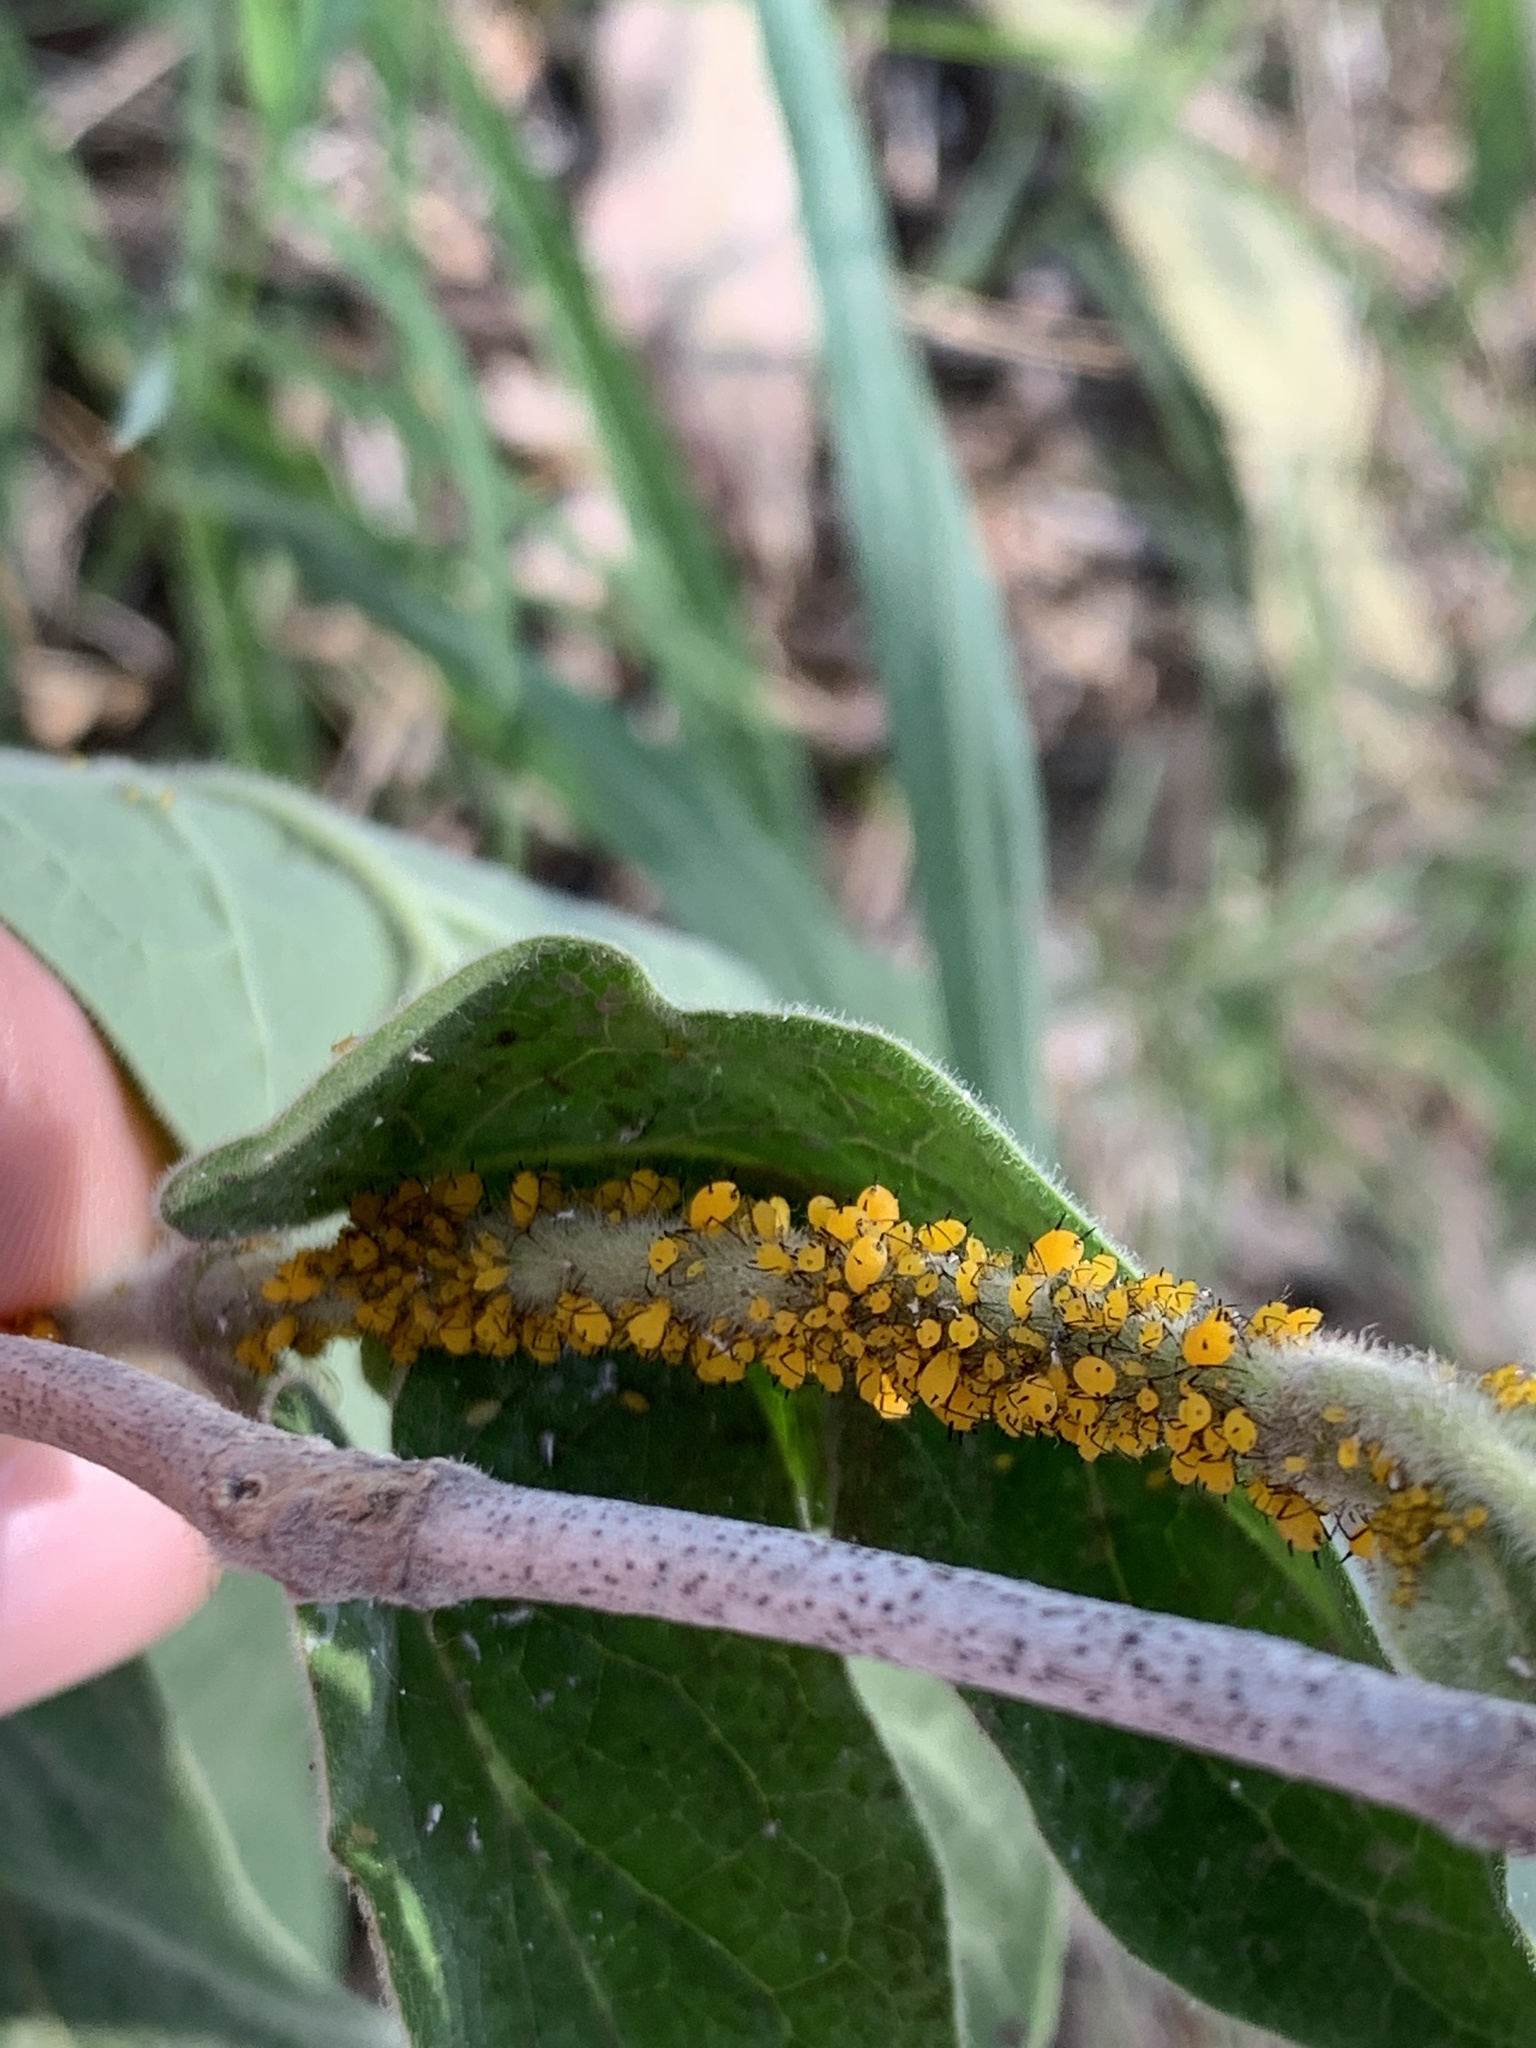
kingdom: Animalia
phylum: Arthropoda
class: Insecta
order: Hemiptera
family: Aphididae
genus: Aphis
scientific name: Aphis nerii
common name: Oleander aphid
